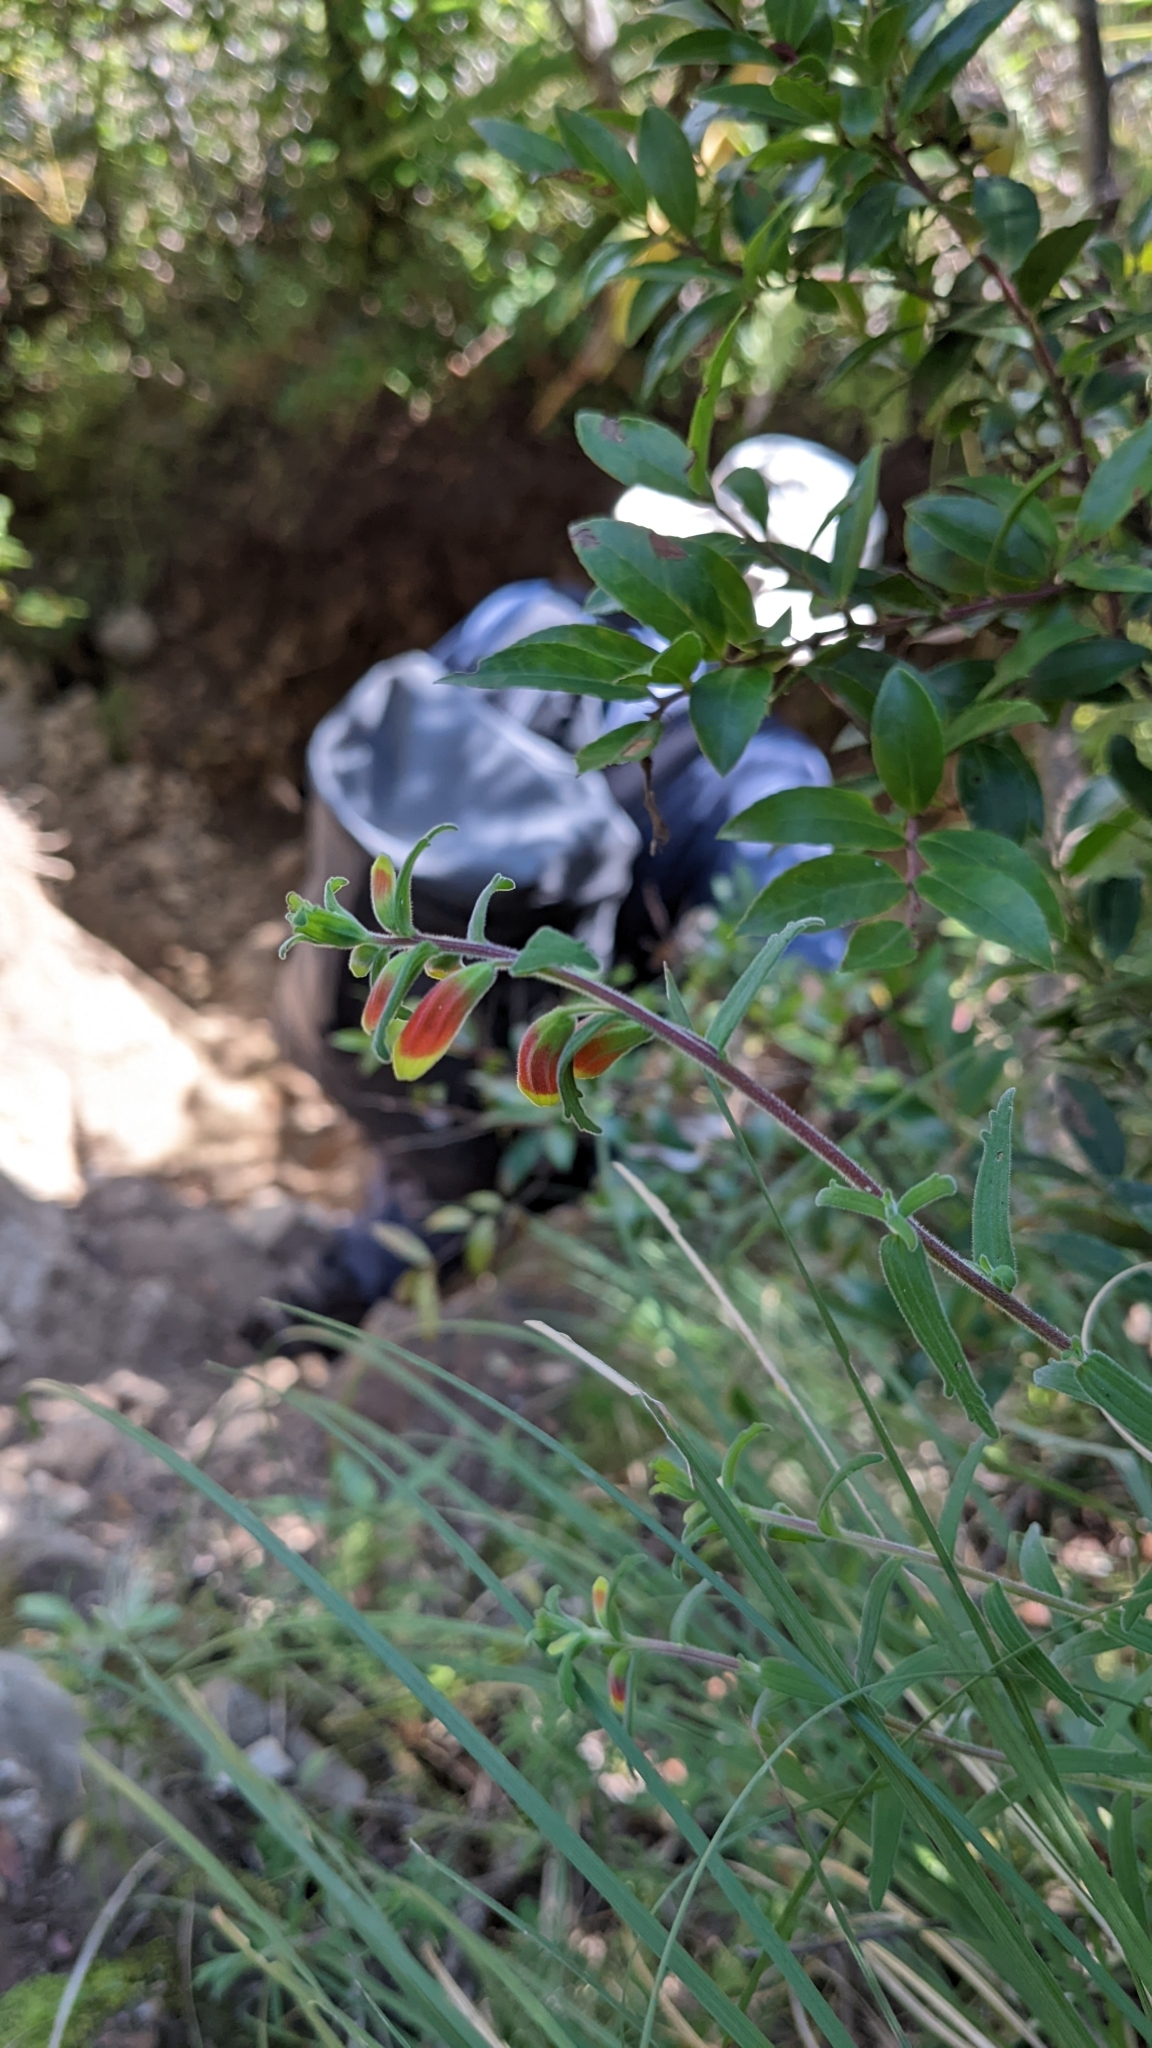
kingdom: Plantae
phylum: Tracheophyta
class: Magnoliopsida
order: Lamiales
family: Orobanchaceae
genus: Castilleja
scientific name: Castilleja quirosii
